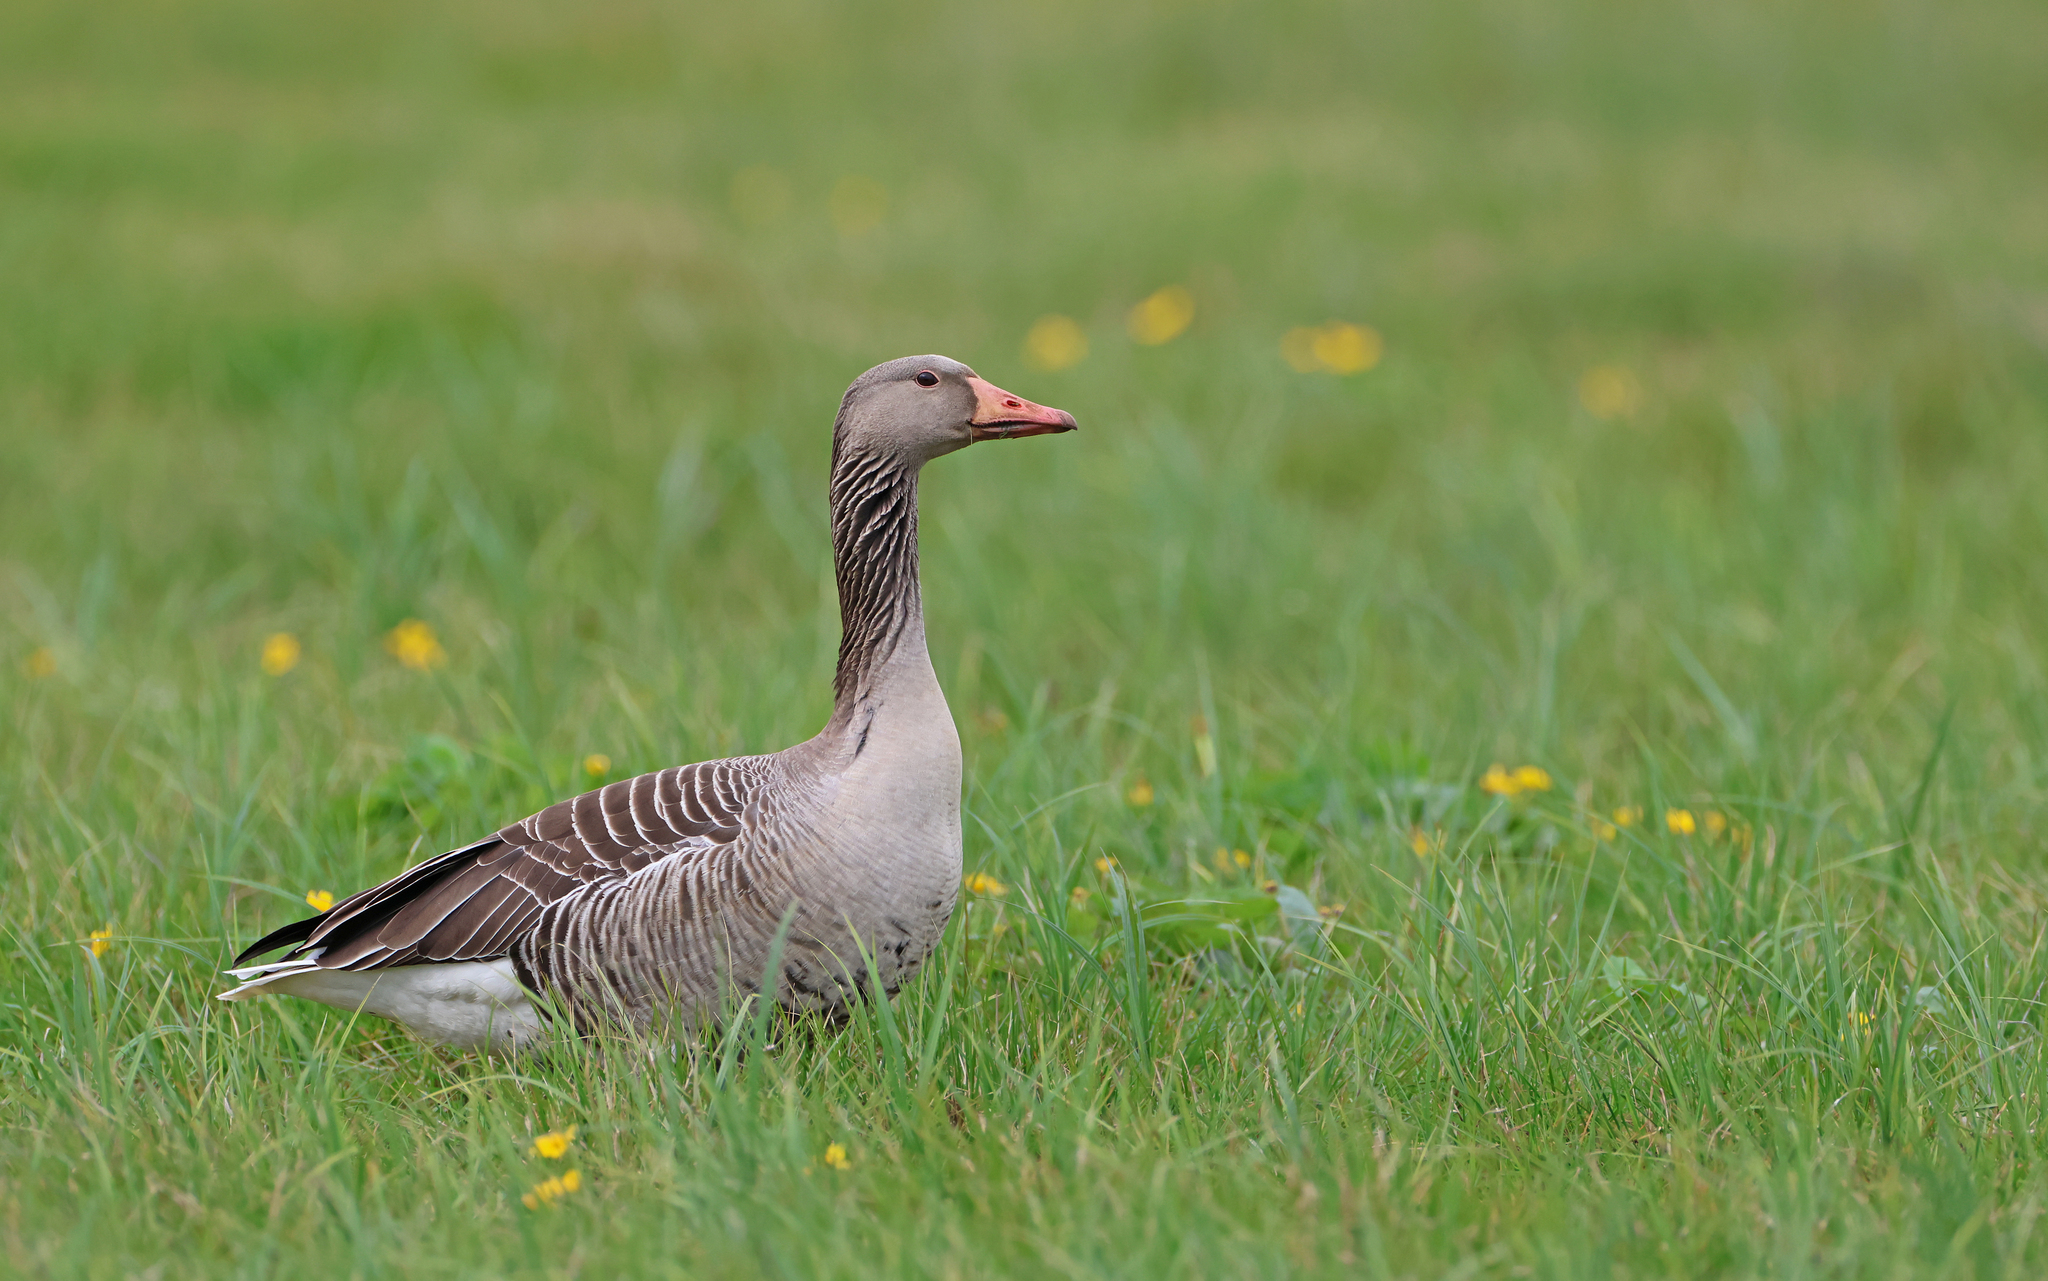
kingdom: Animalia
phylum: Chordata
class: Aves
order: Anseriformes
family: Anatidae
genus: Anser
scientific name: Anser anser
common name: Greylag goose
